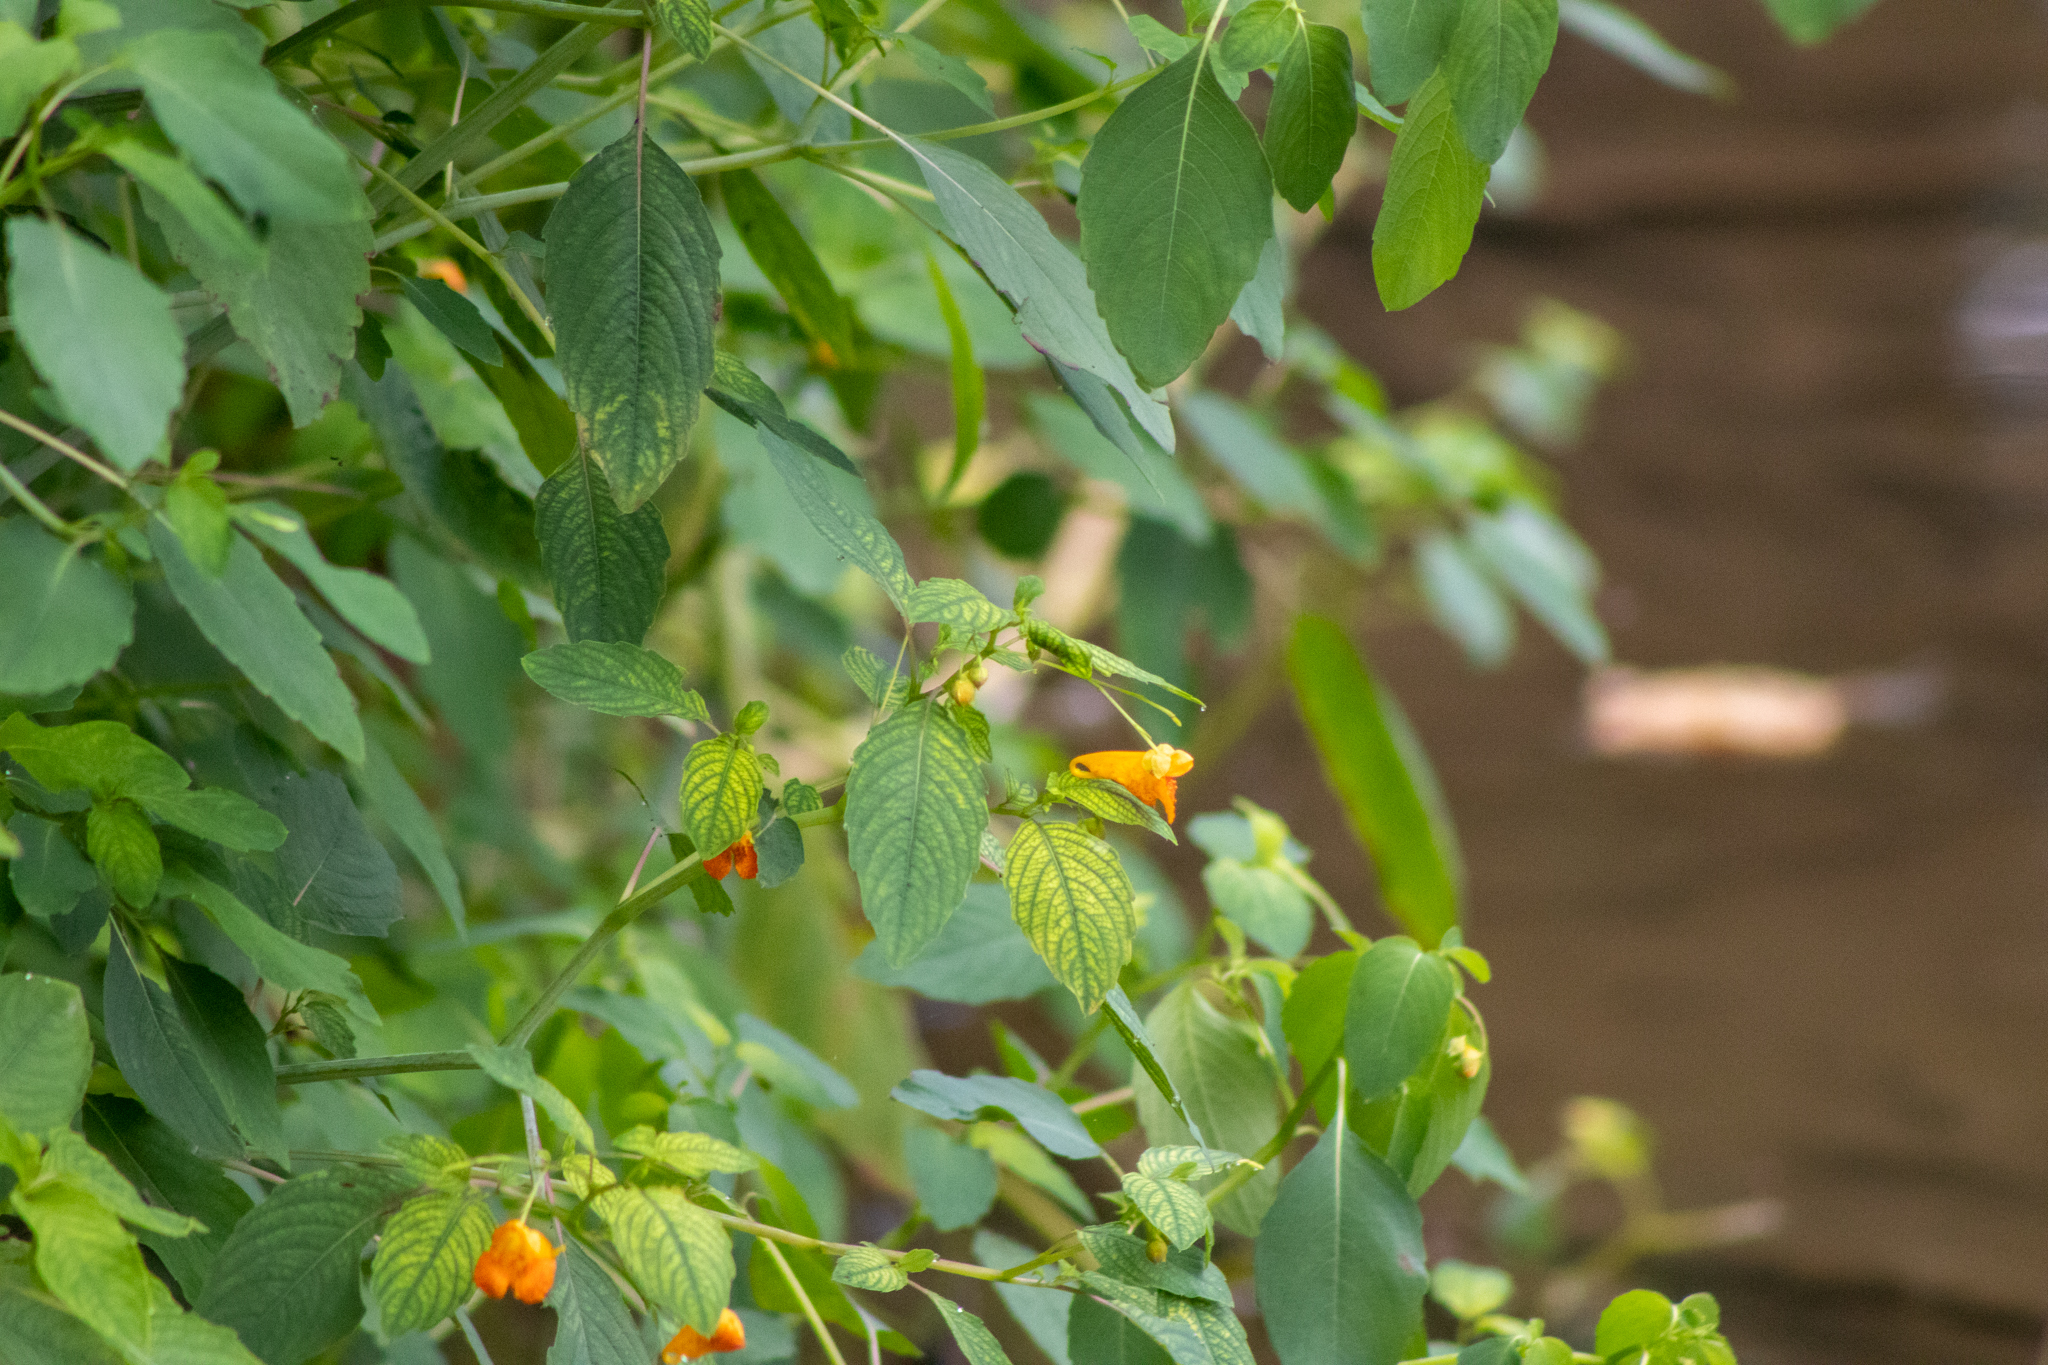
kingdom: Plantae
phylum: Tracheophyta
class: Magnoliopsida
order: Ericales
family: Balsaminaceae
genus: Impatiens
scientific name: Impatiens capensis
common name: Orange balsam
